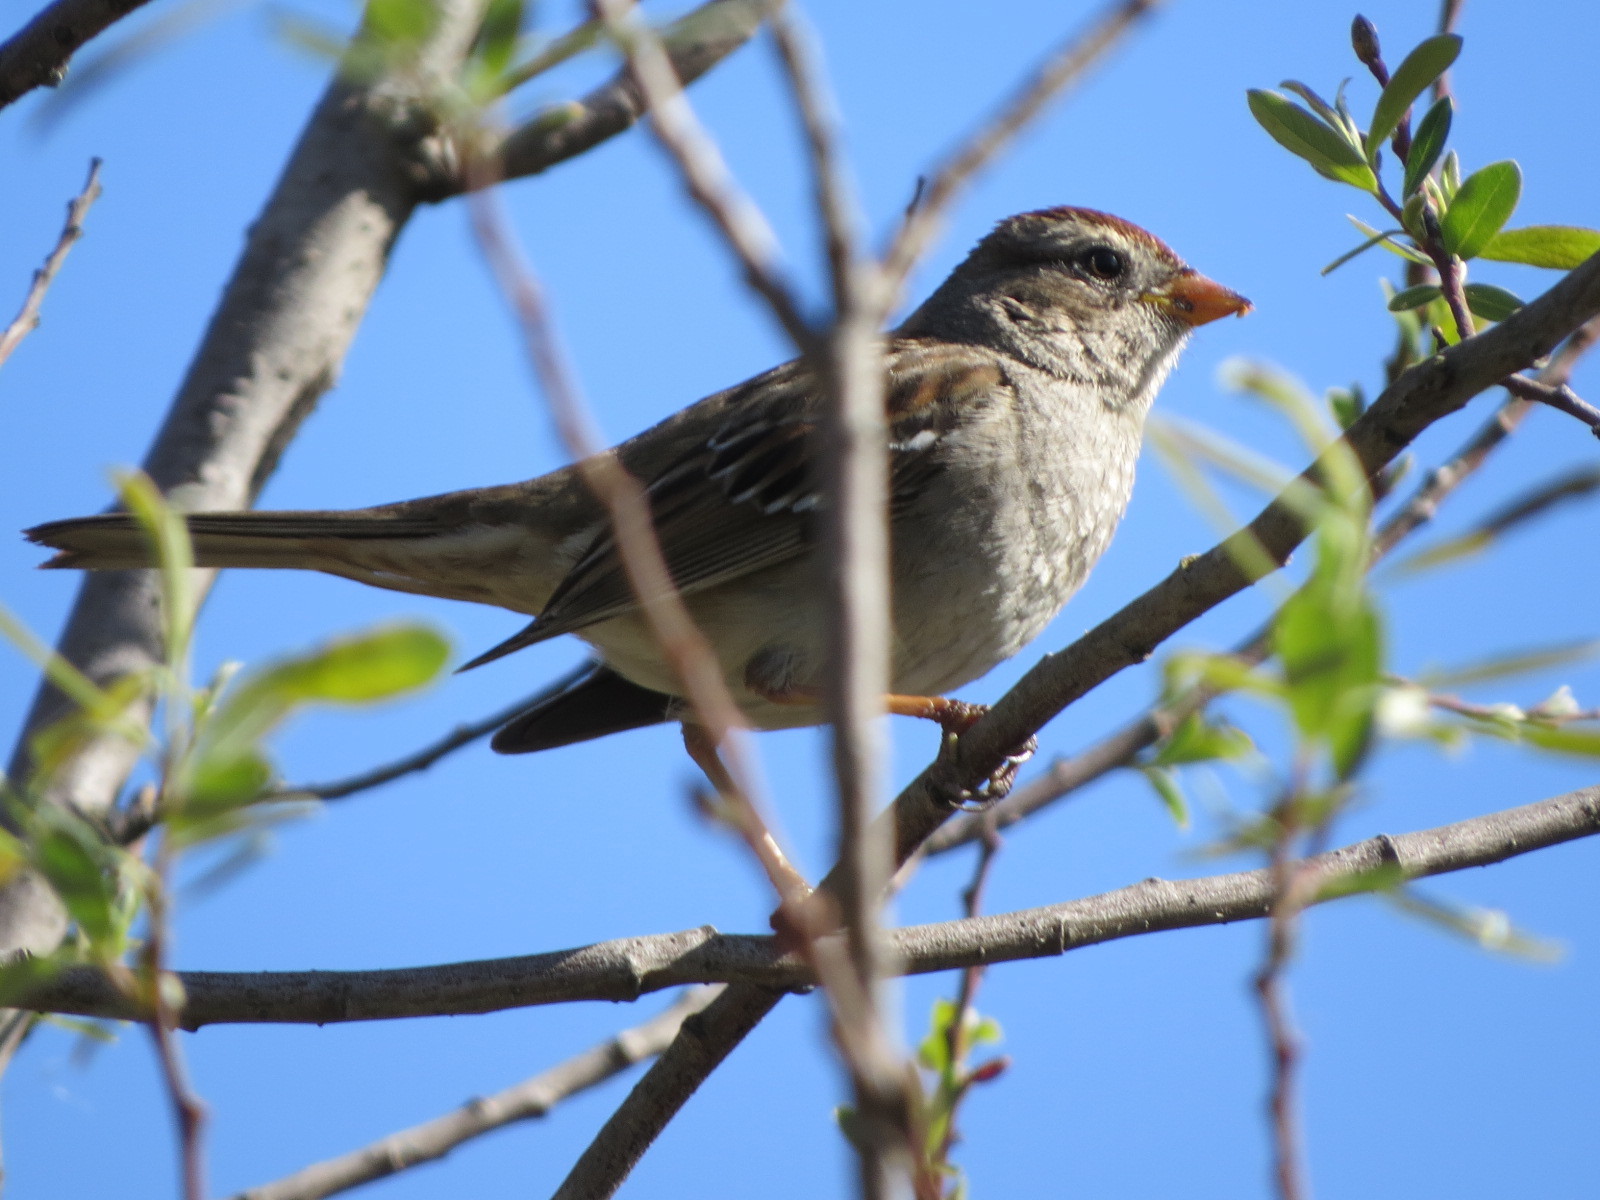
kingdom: Animalia
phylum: Chordata
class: Aves
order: Passeriformes
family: Passerellidae
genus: Zonotrichia
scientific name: Zonotrichia leucophrys
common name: White-crowned sparrow
